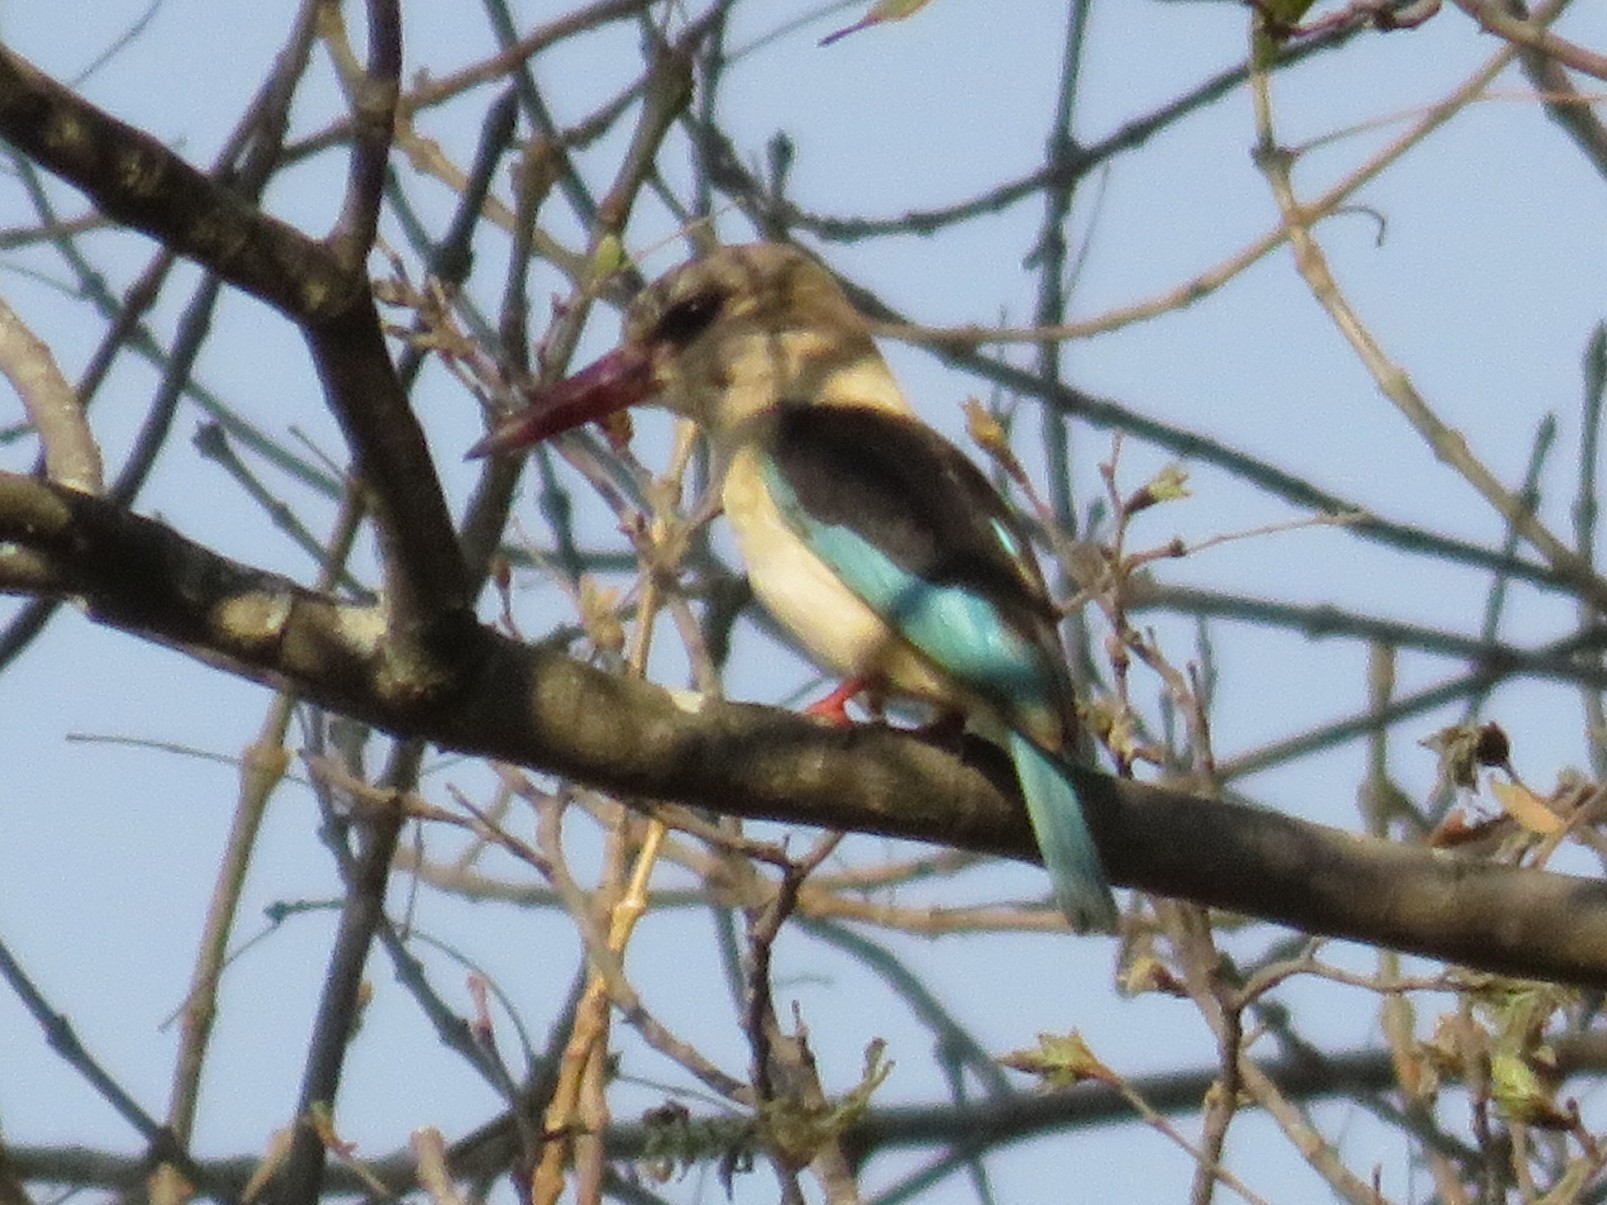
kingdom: Animalia
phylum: Chordata
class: Aves
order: Coraciiformes
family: Alcedinidae
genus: Halcyon
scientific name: Halcyon albiventris
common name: Brown-hooded kingfisher
